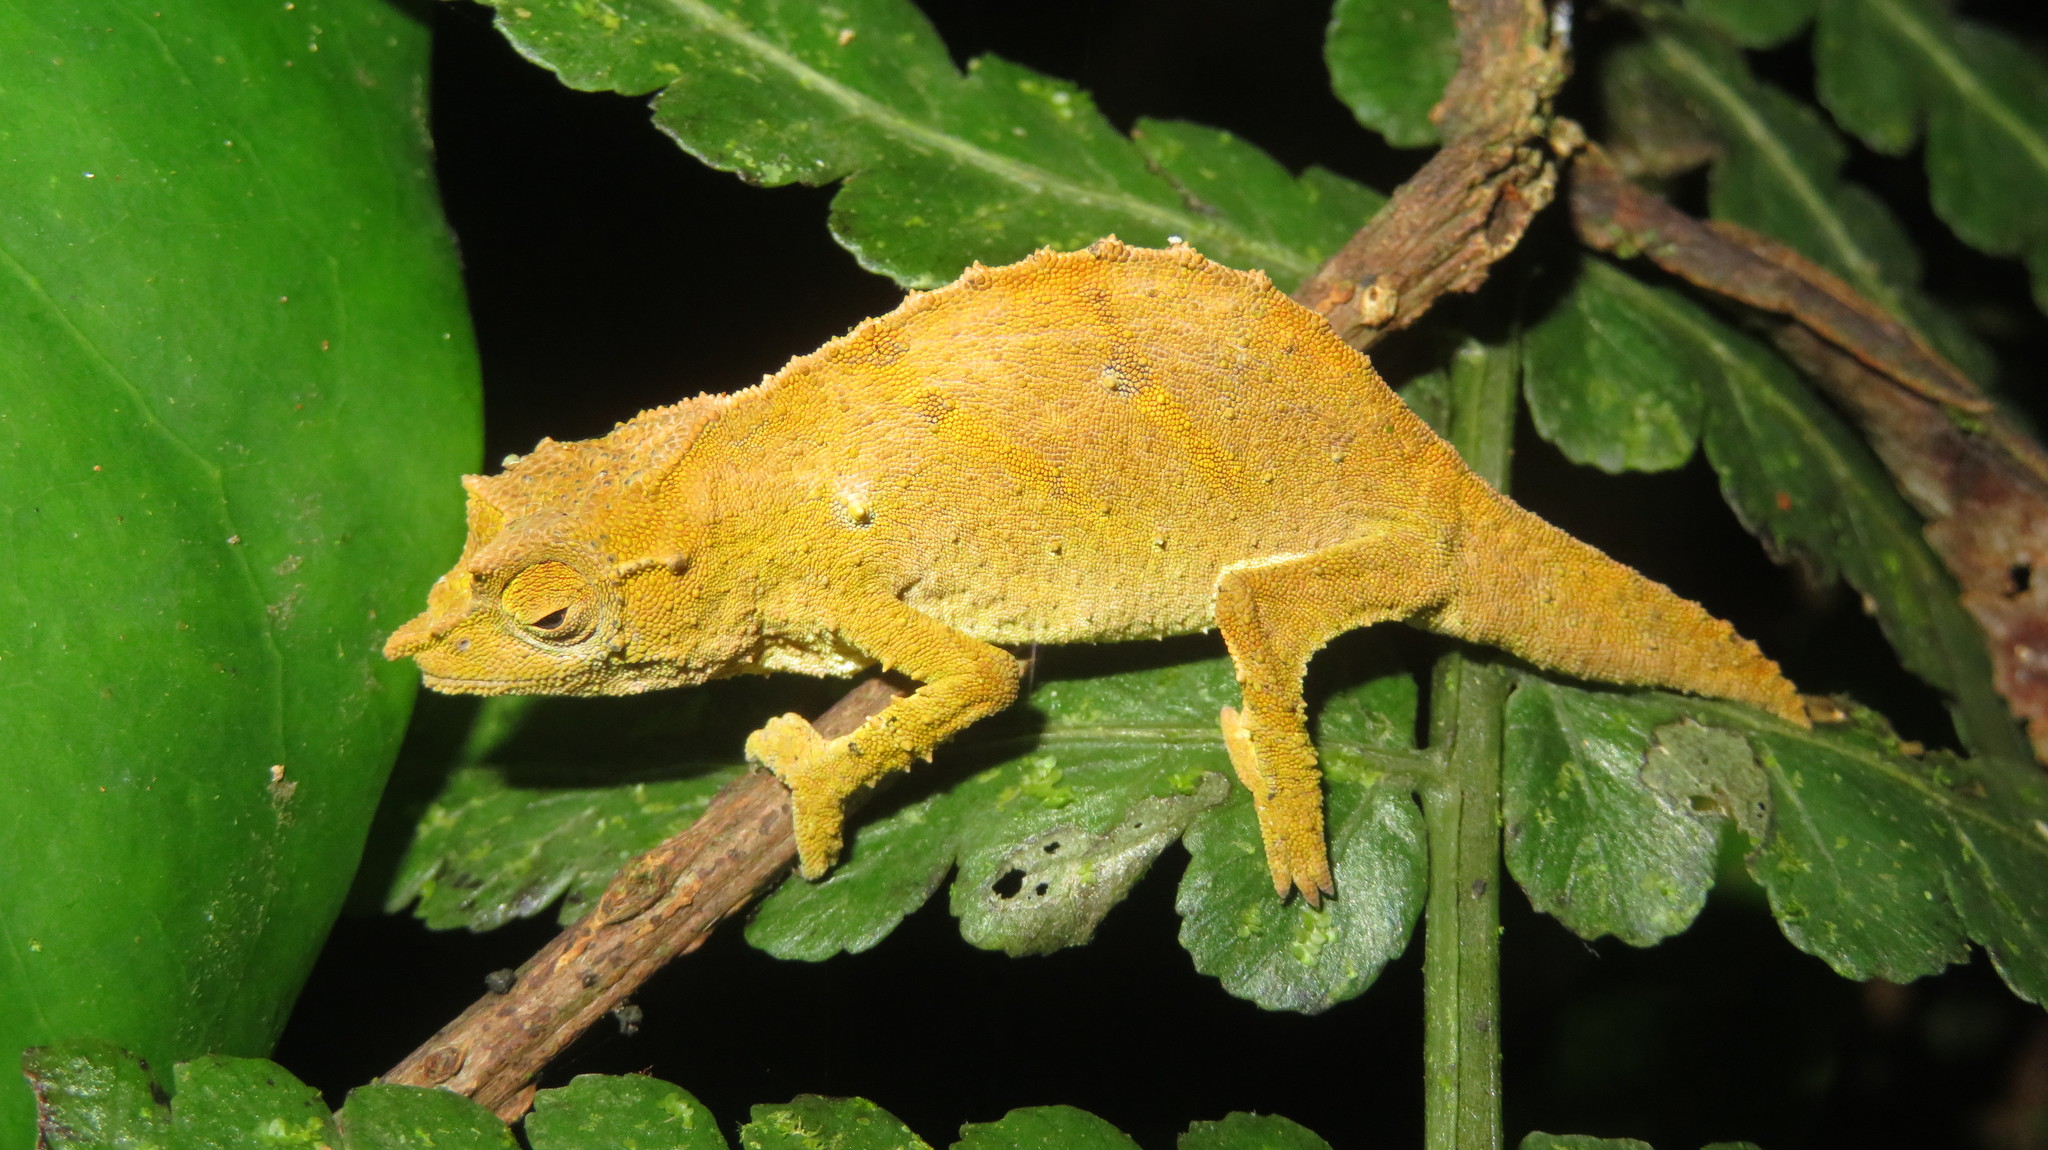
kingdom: Animalia
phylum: Chordata
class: Squamata
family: Chamaeleonidae
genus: Rhampholeon
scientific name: Rhampholeon uluguruensis
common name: Uluguru pygmy chameleon
